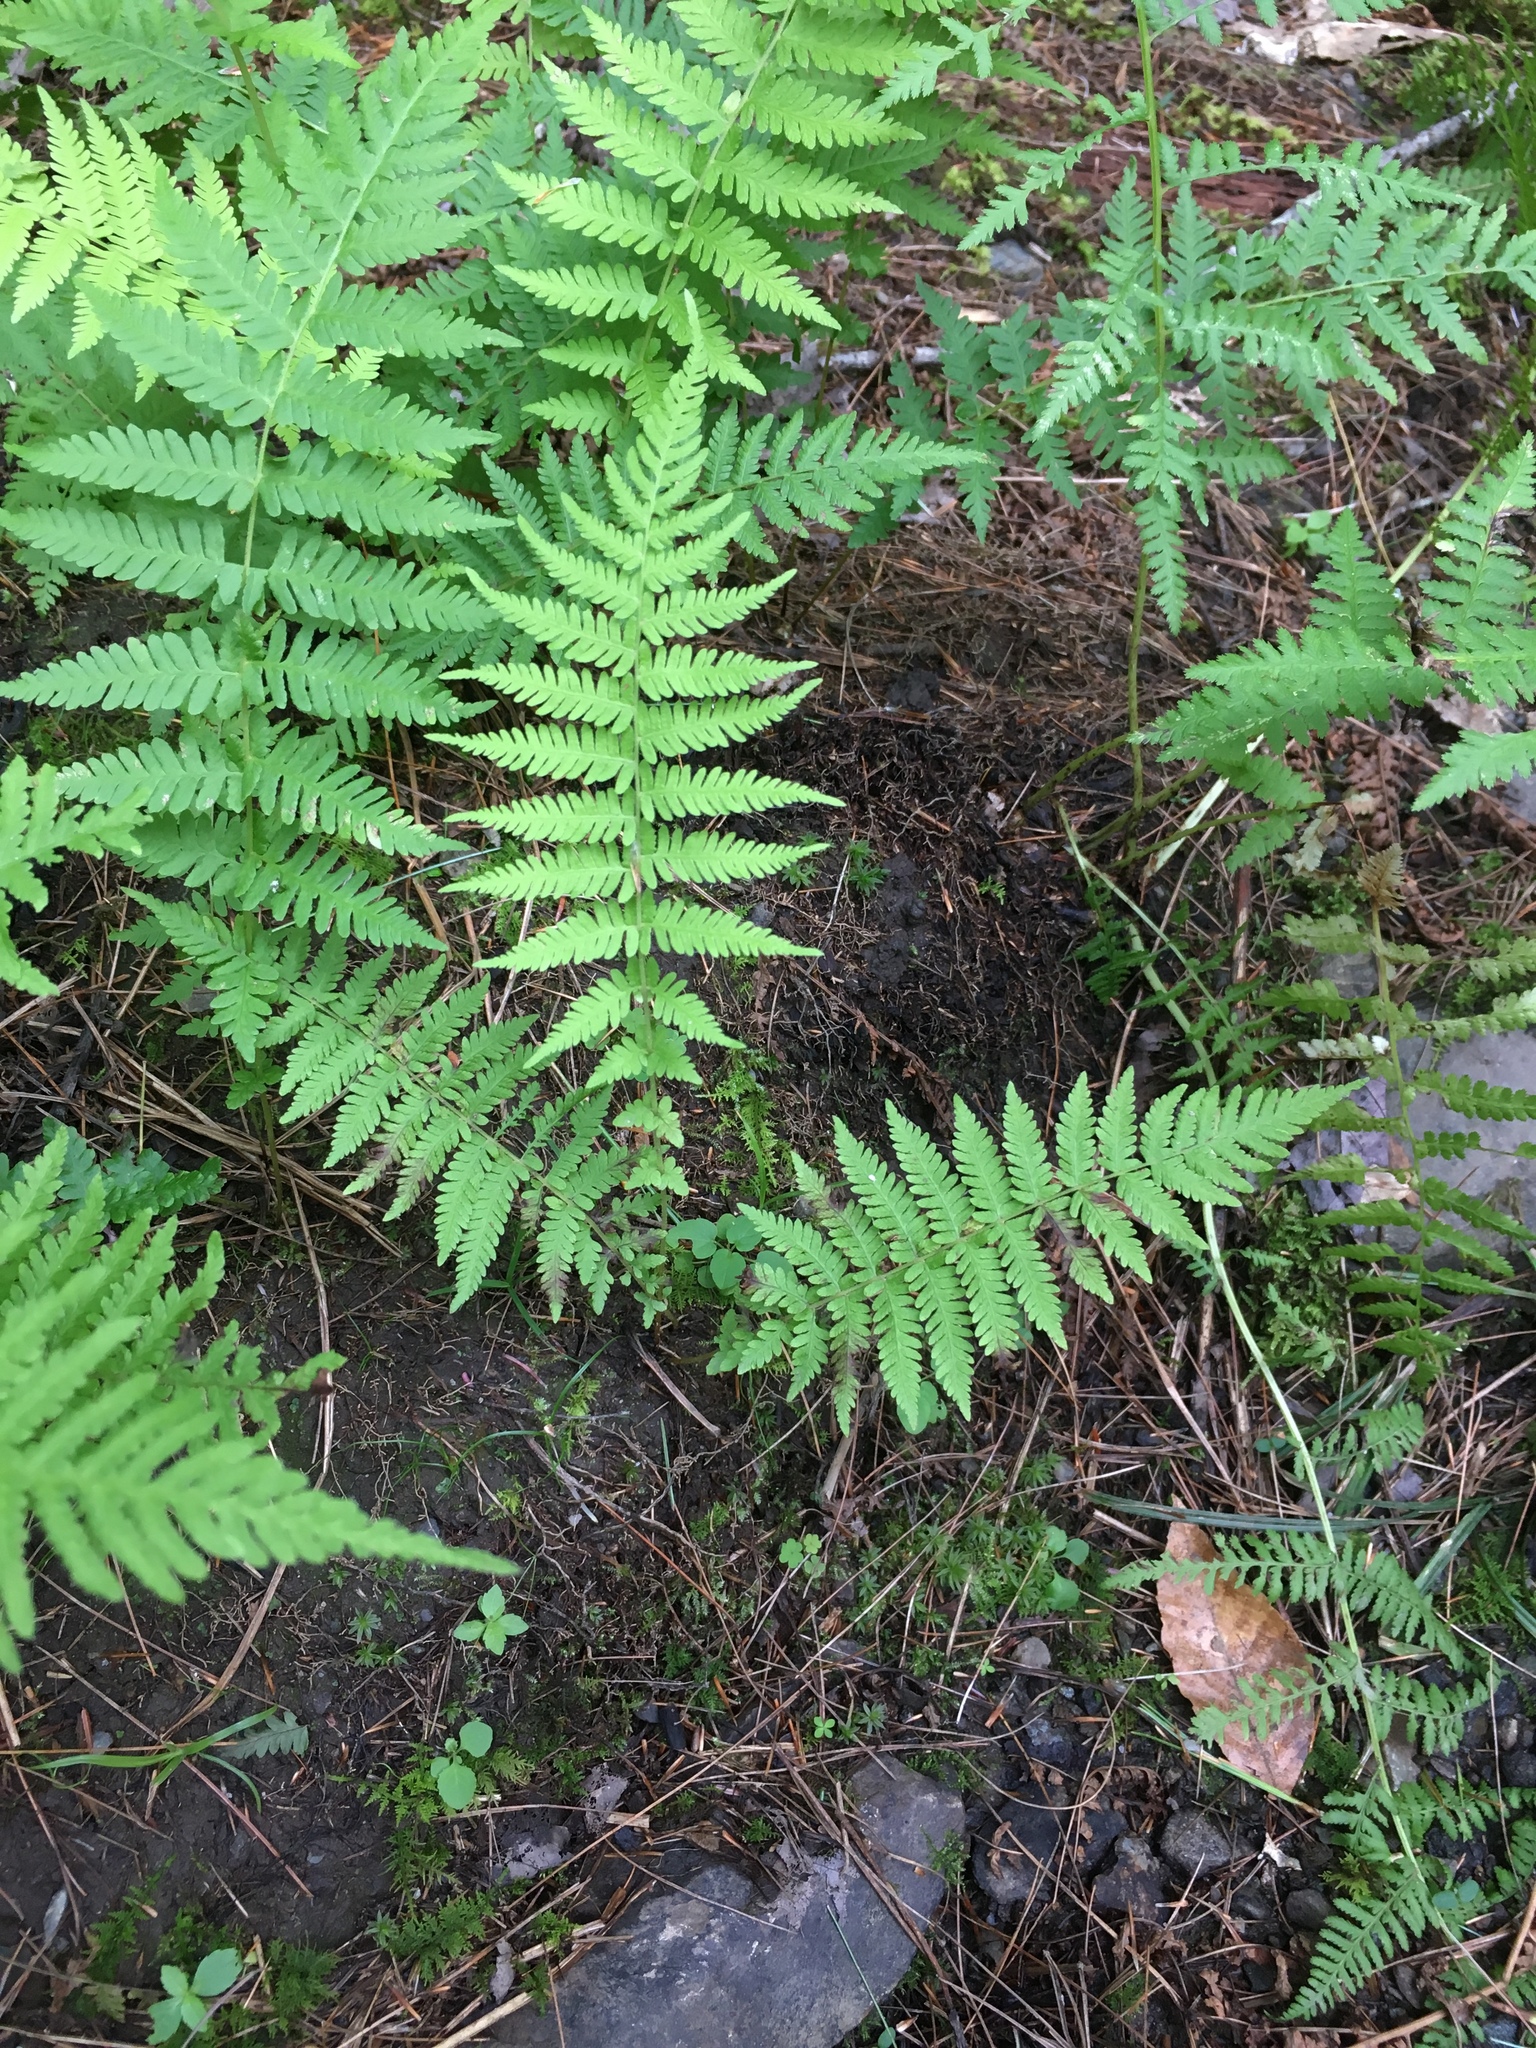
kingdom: Plantae
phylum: Tracheophyta
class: Polypodiopsida
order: Polypodiales
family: Thelypteridaceae
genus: Amauropelta
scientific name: Amauropelta noveboracensis
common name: New york fern
